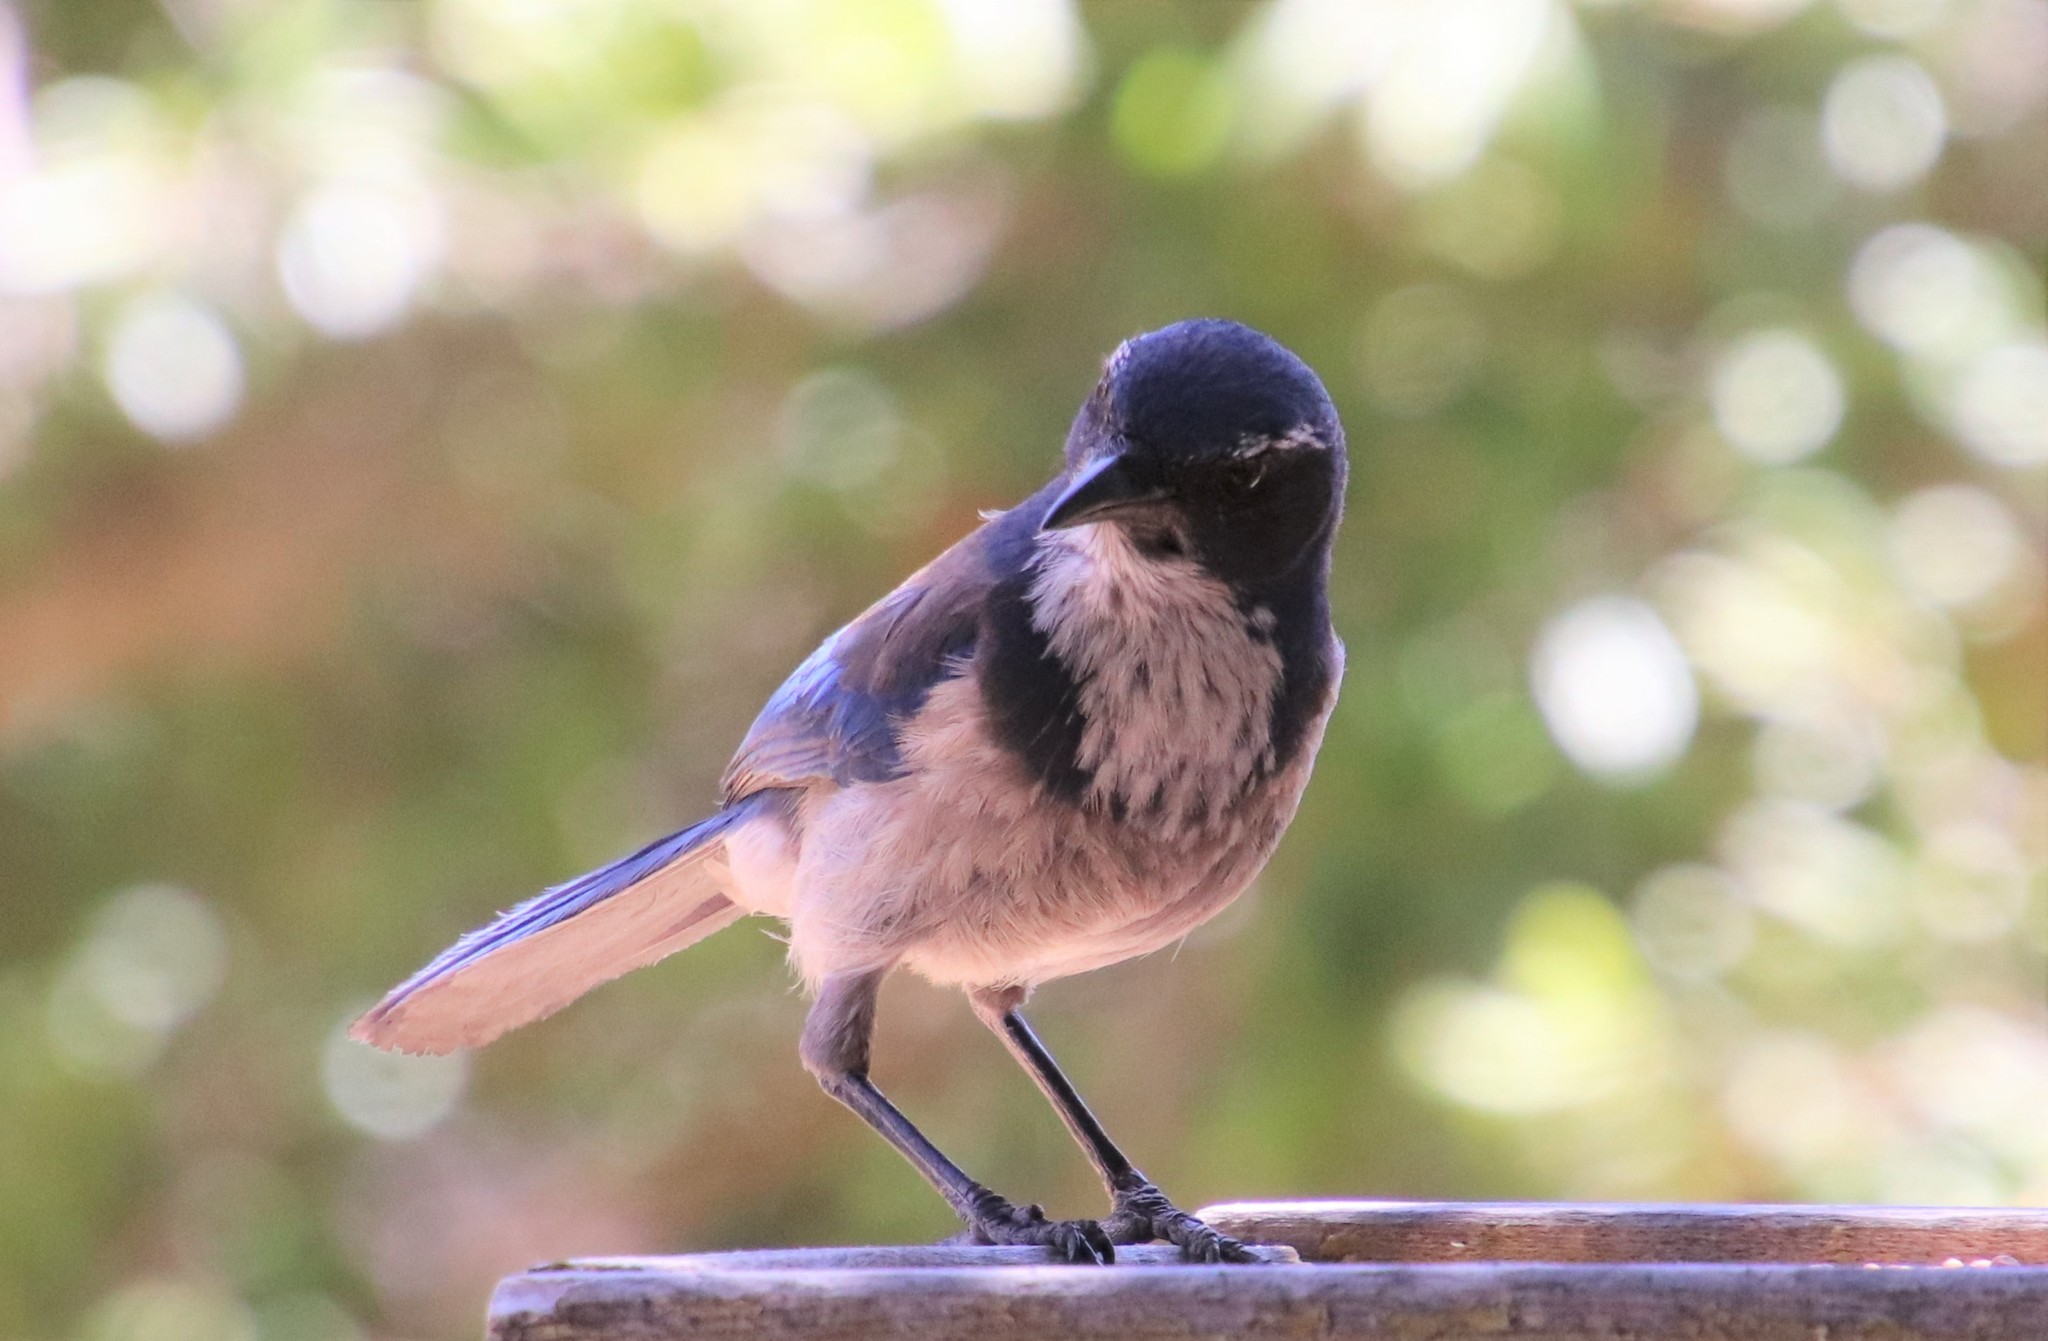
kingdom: Animalia
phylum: Chordata
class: Aves
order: Passeriformes
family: Corvidae
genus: Aphelocoma
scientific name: Aphelocoma californica
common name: California scrub-jay
